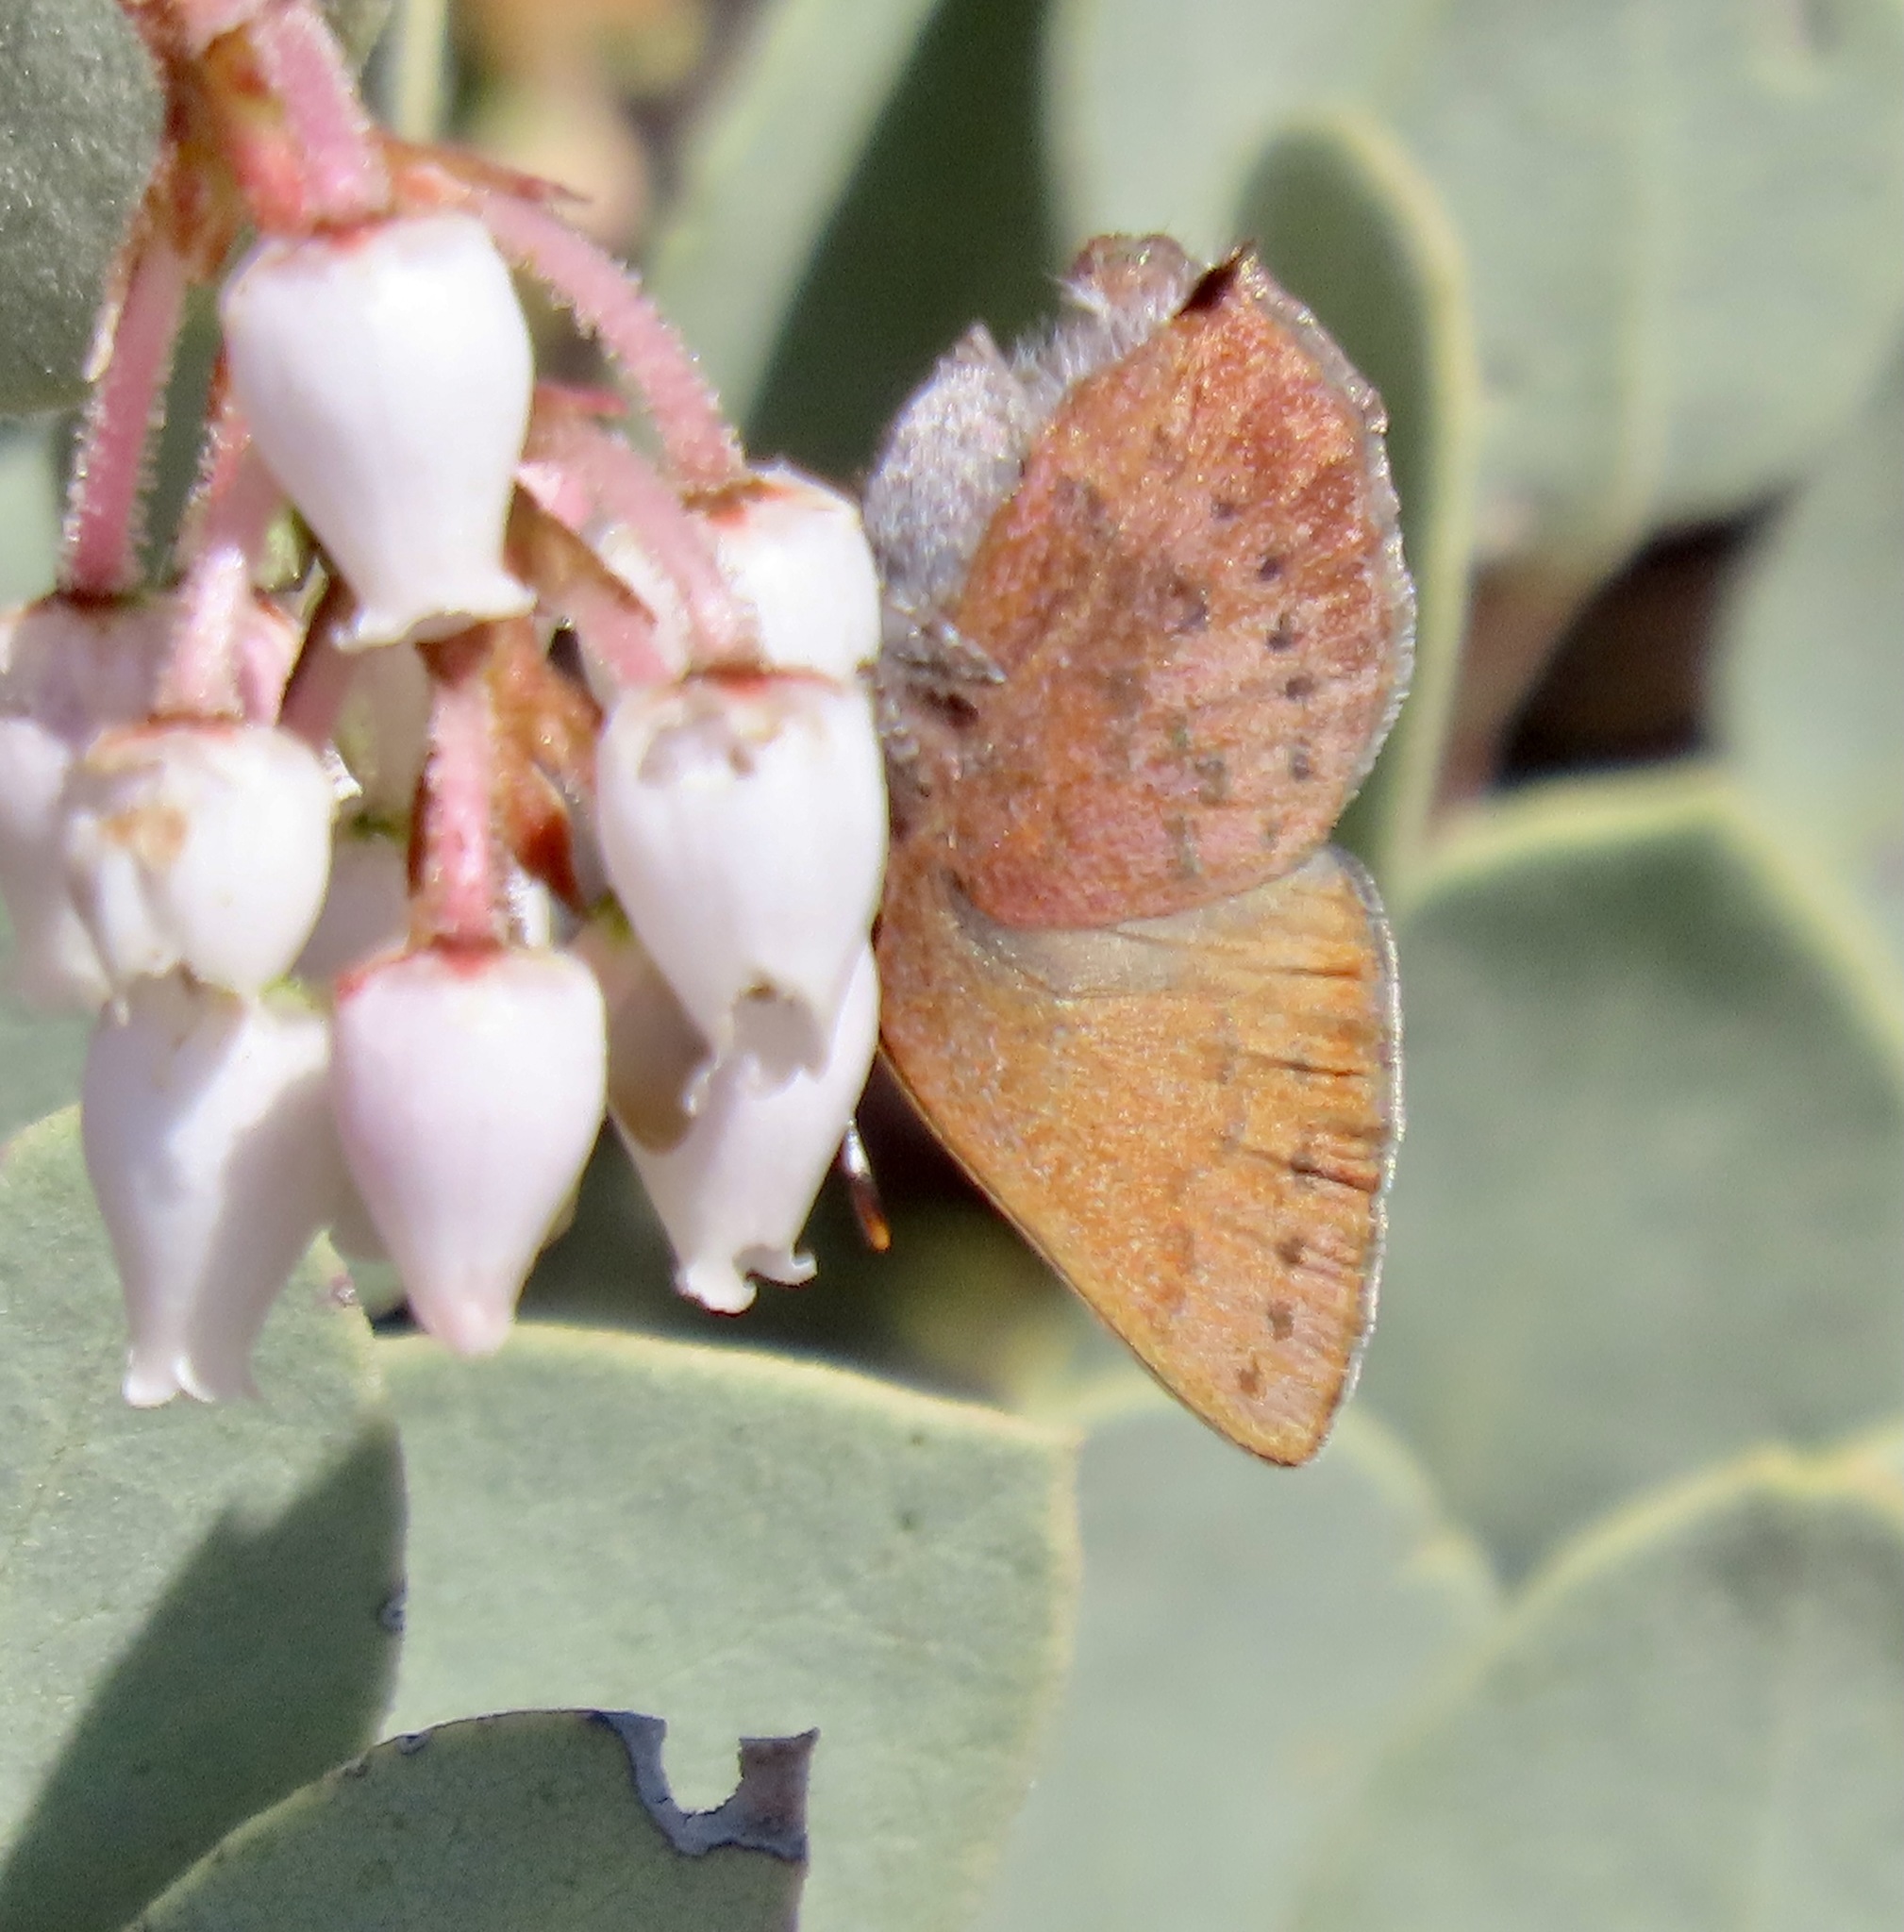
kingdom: Animalia
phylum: Arthropoda
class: Insecta
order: Lepidoptera
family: Lycaenidae
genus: Incisalia
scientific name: Incisalia irioides
